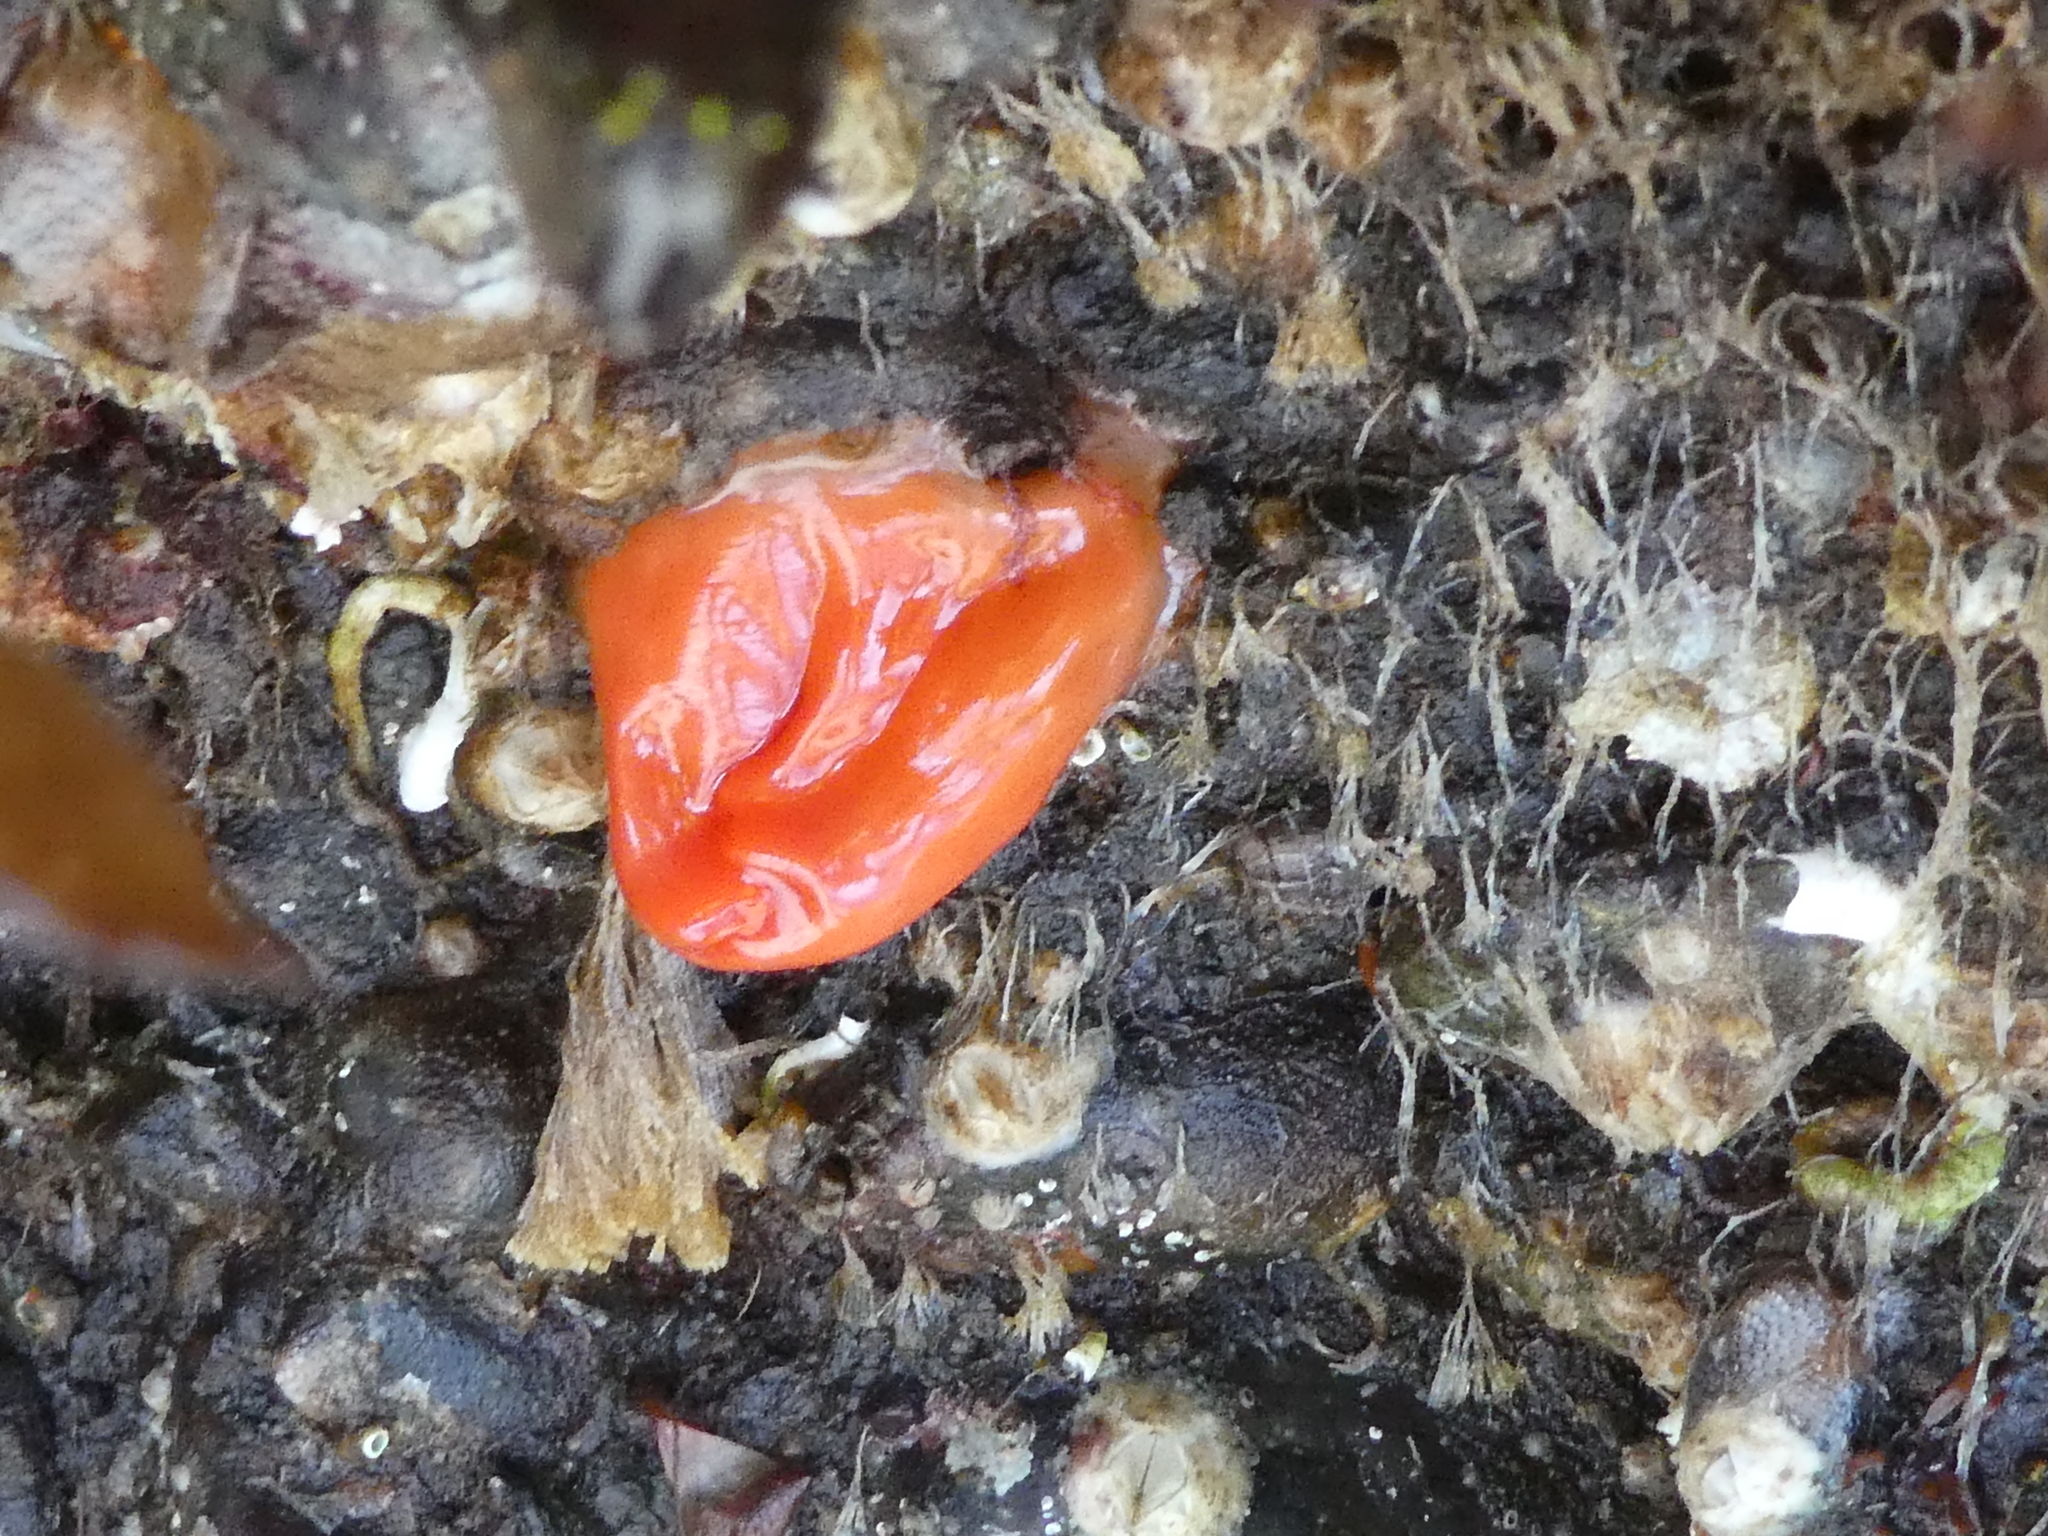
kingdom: Animalia
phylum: Chordata
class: Ascidiacea
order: Stolidobranchia
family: Styelidae
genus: Cnemidocarpa
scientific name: Cnemidocarpa finmarkiensis
